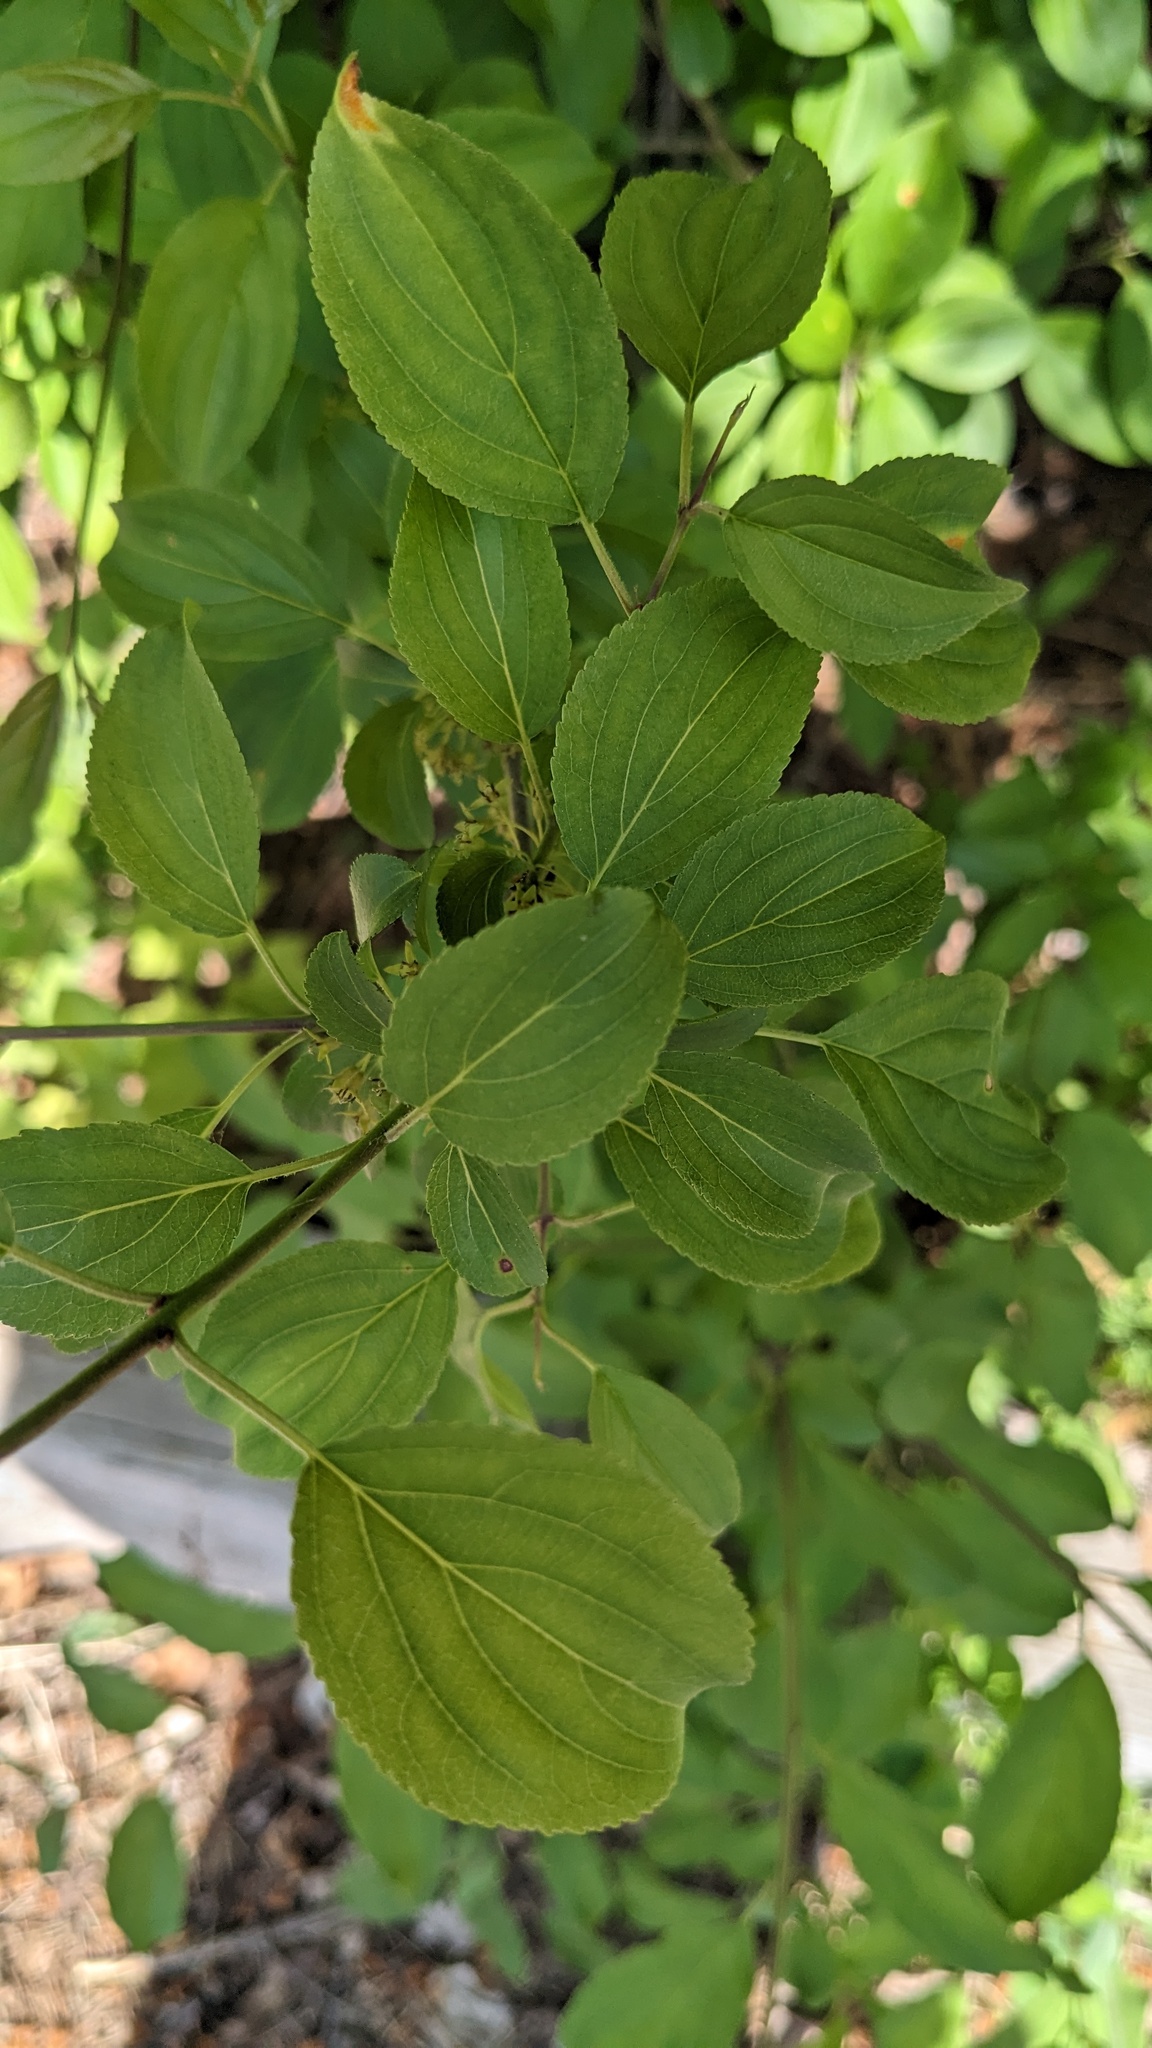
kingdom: Plantae
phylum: Tracheophyta
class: Magnoliopsida
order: Rosales
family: Rhamnaceae
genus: Rhamnus
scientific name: Rhamnus cathartica
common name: Common buckthorn
